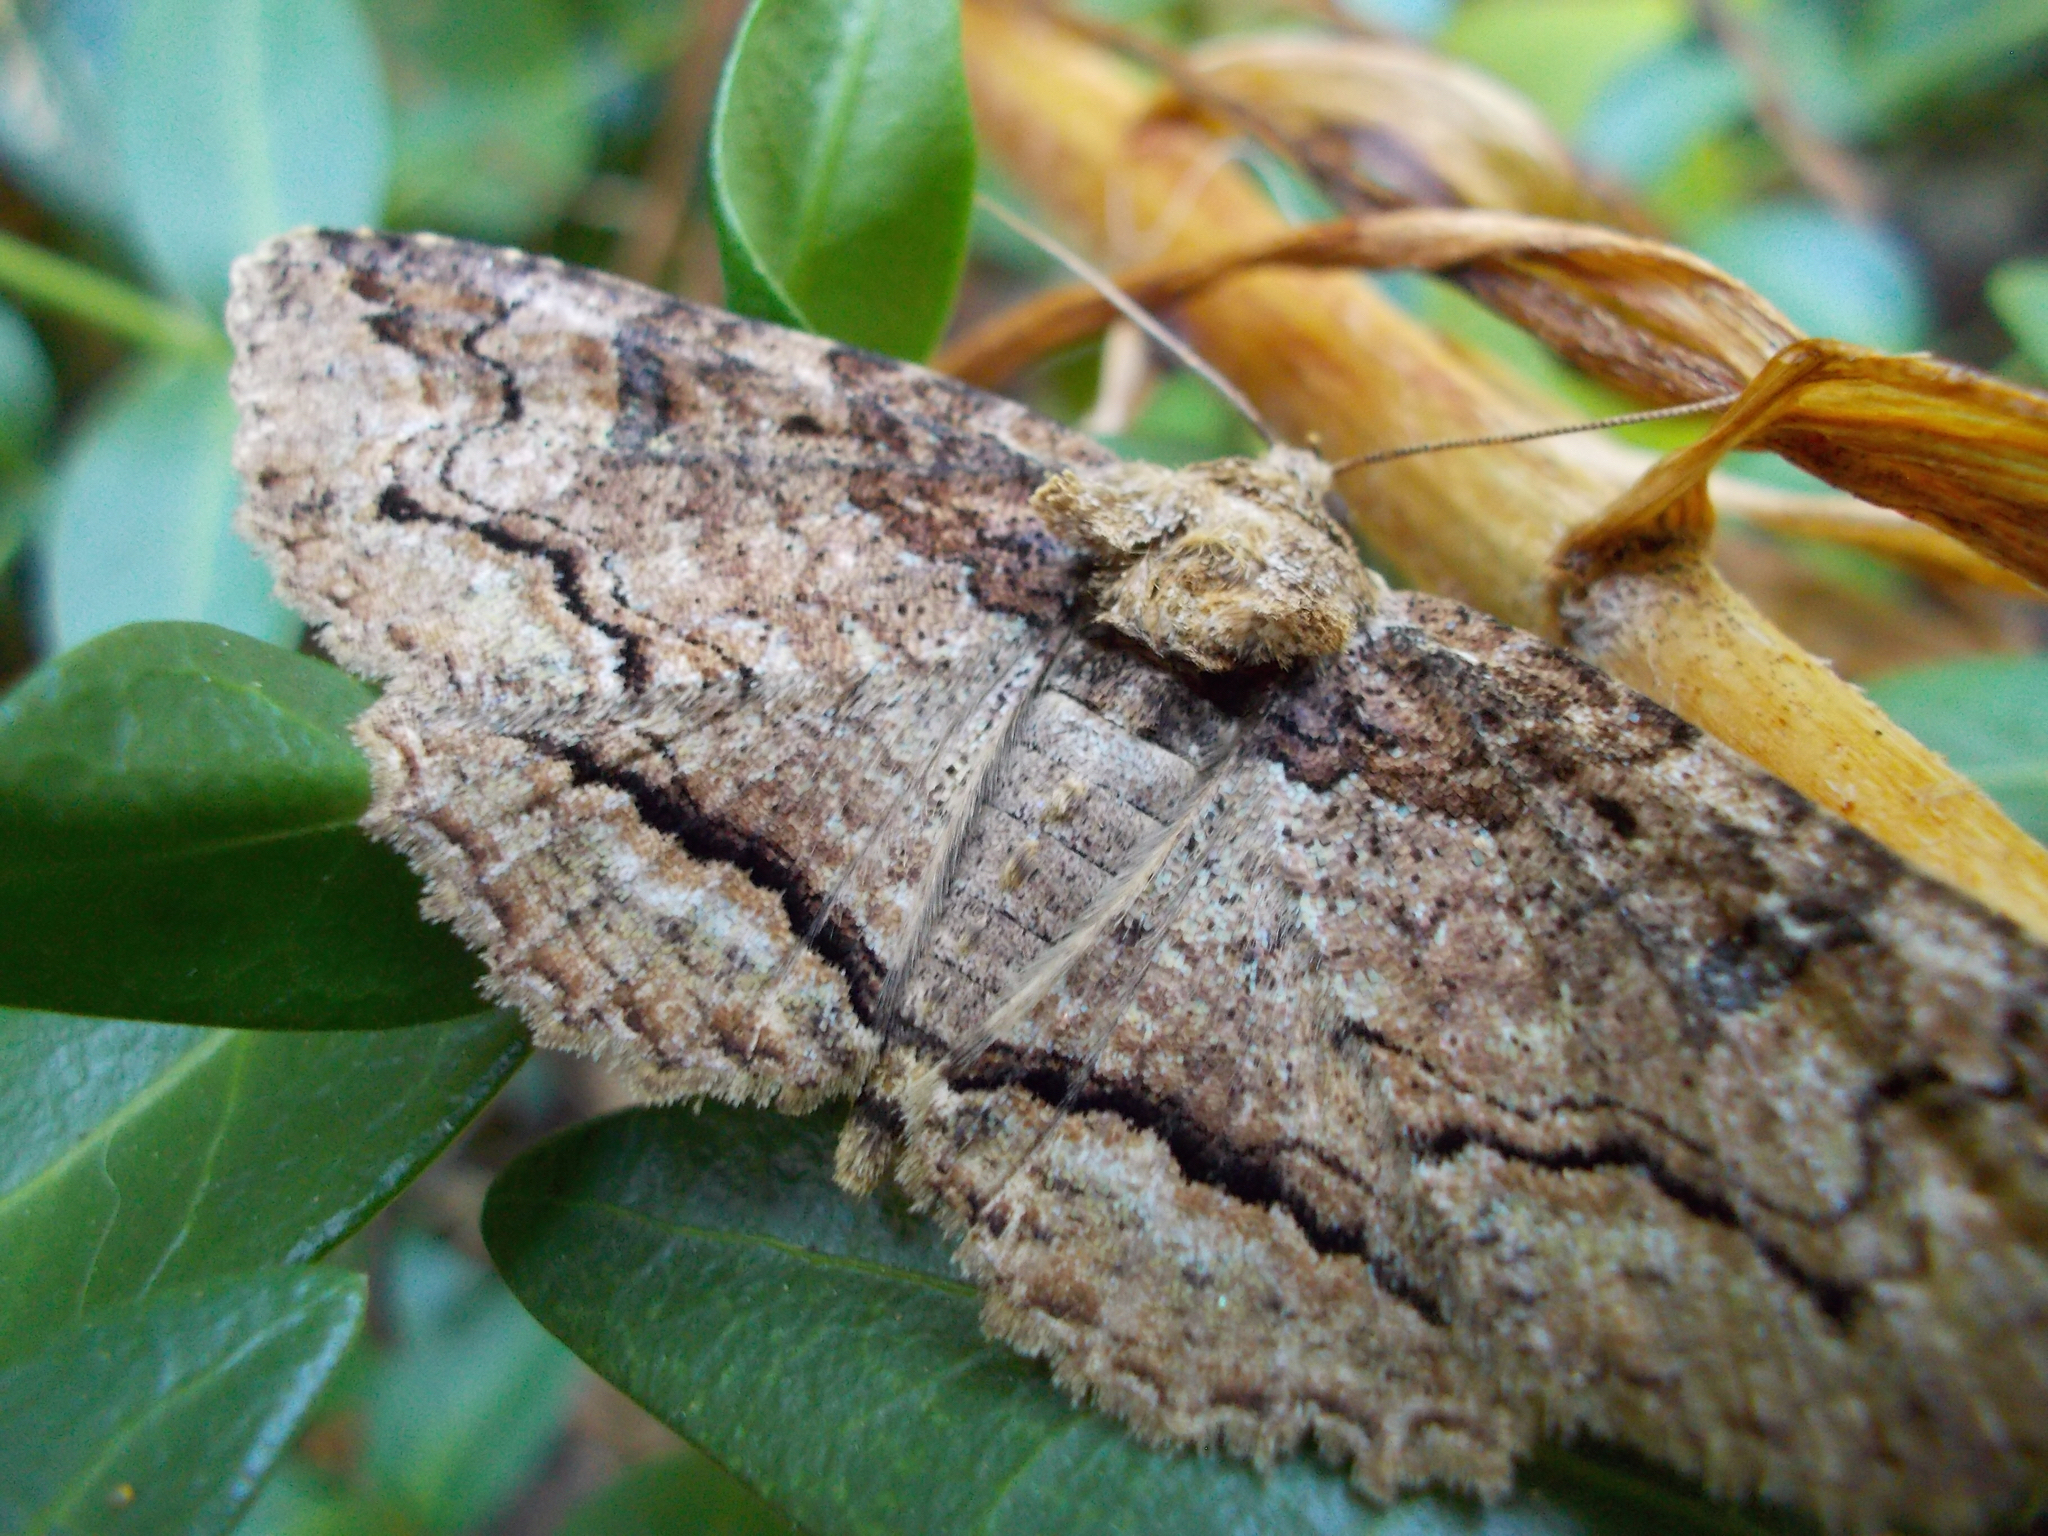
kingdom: Animalia
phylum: Arthropoda
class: Insecta
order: Lepidoptera
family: Erebidae
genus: Zale
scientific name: Zale galbanata
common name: Maple zale
